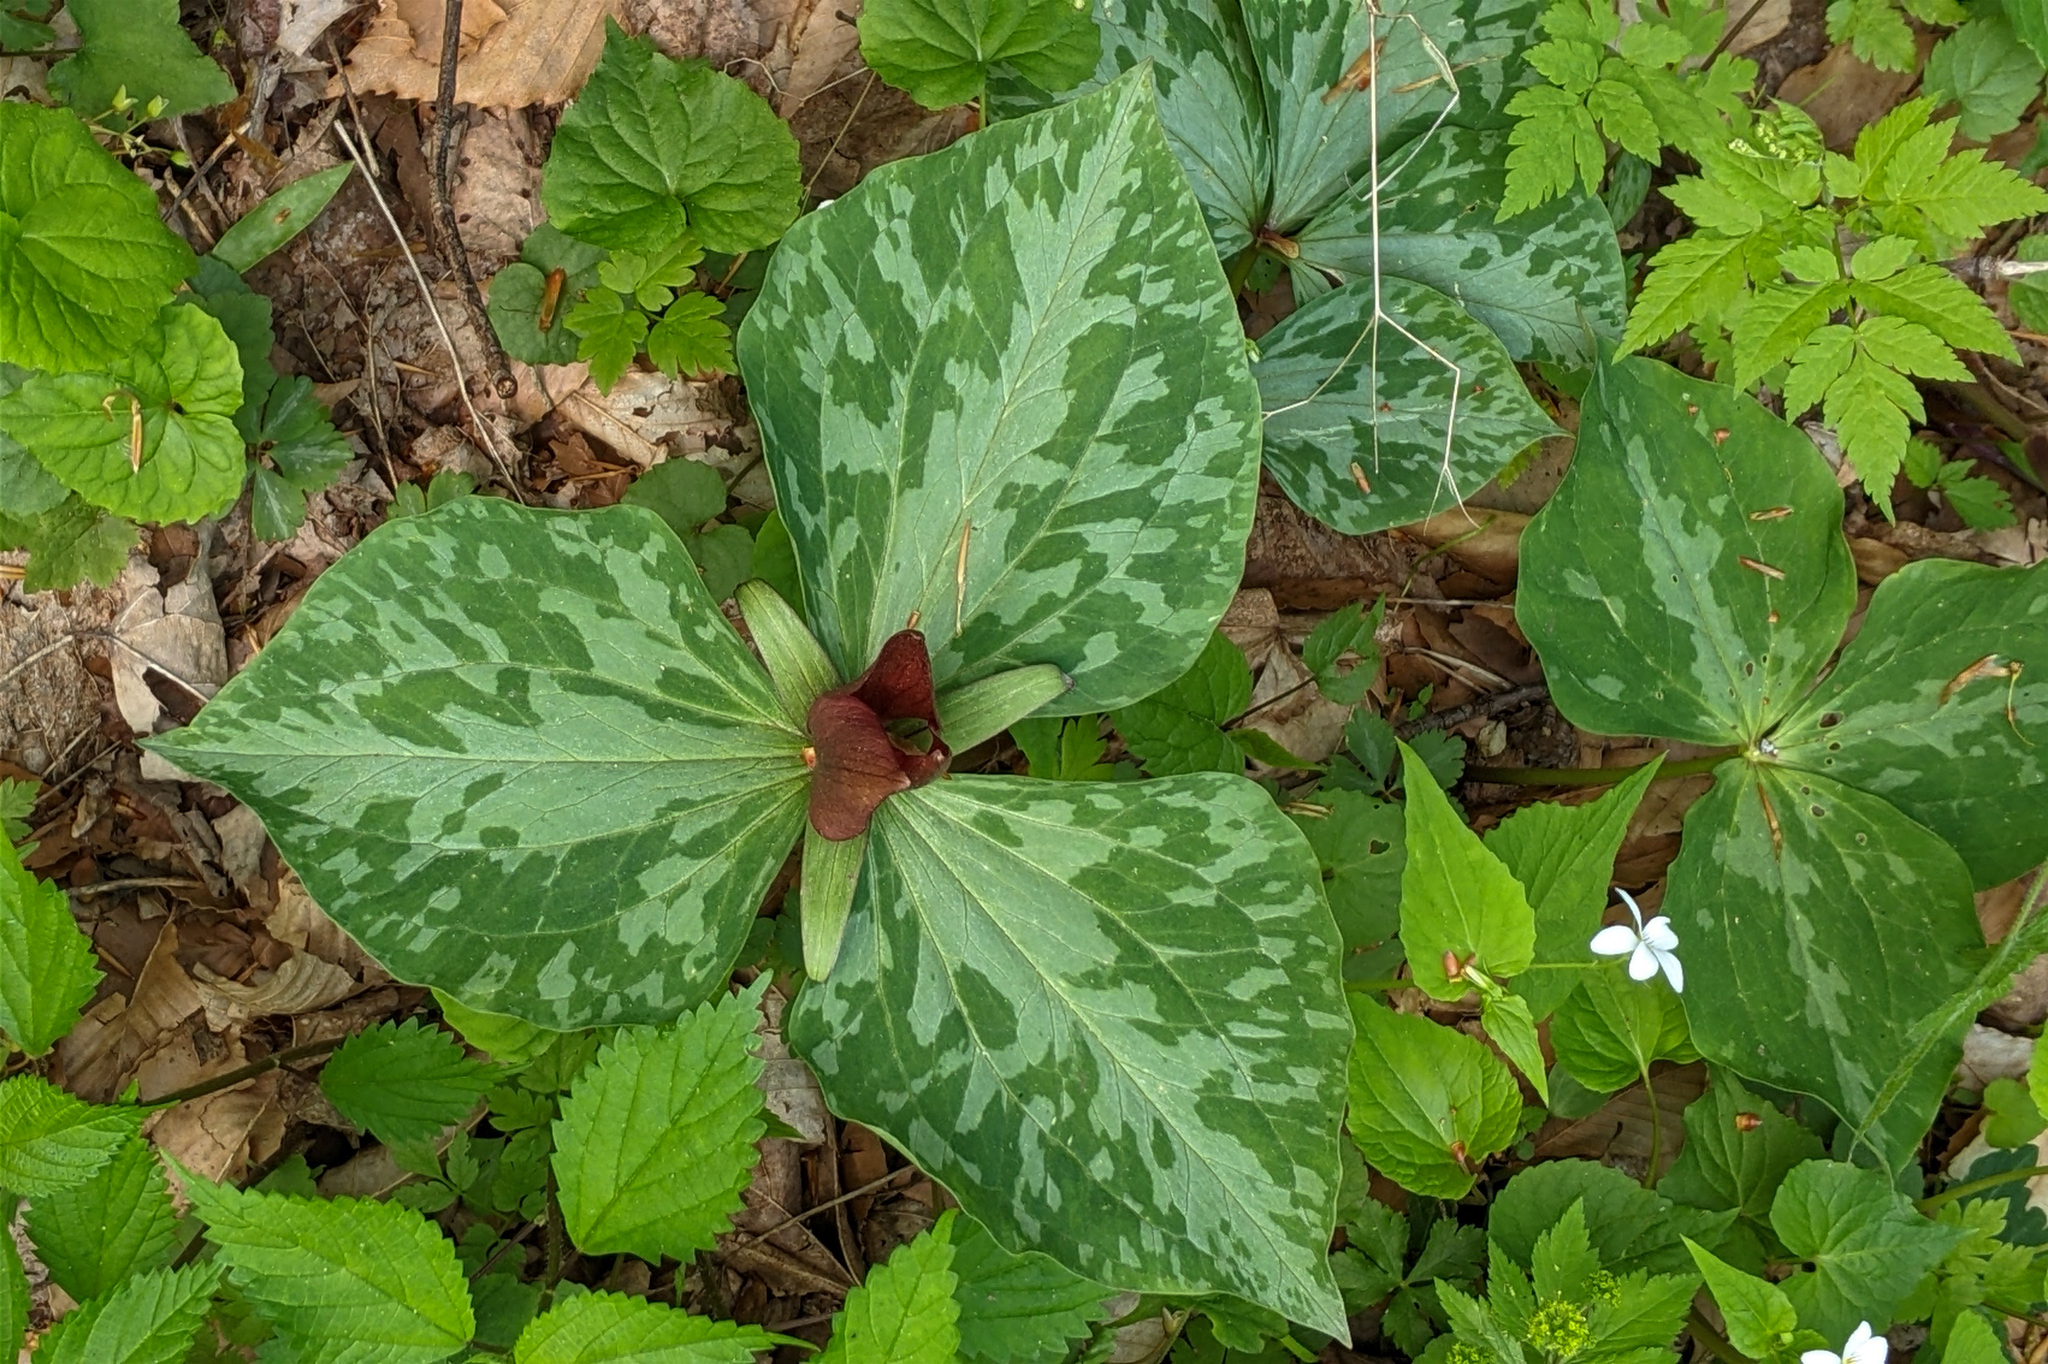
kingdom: Plantae
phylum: Tracheophyta
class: Liliopsida
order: Liliales
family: Melanthiaceae
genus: Trillium
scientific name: Trillium cuneatum
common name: Cuneate trillium
